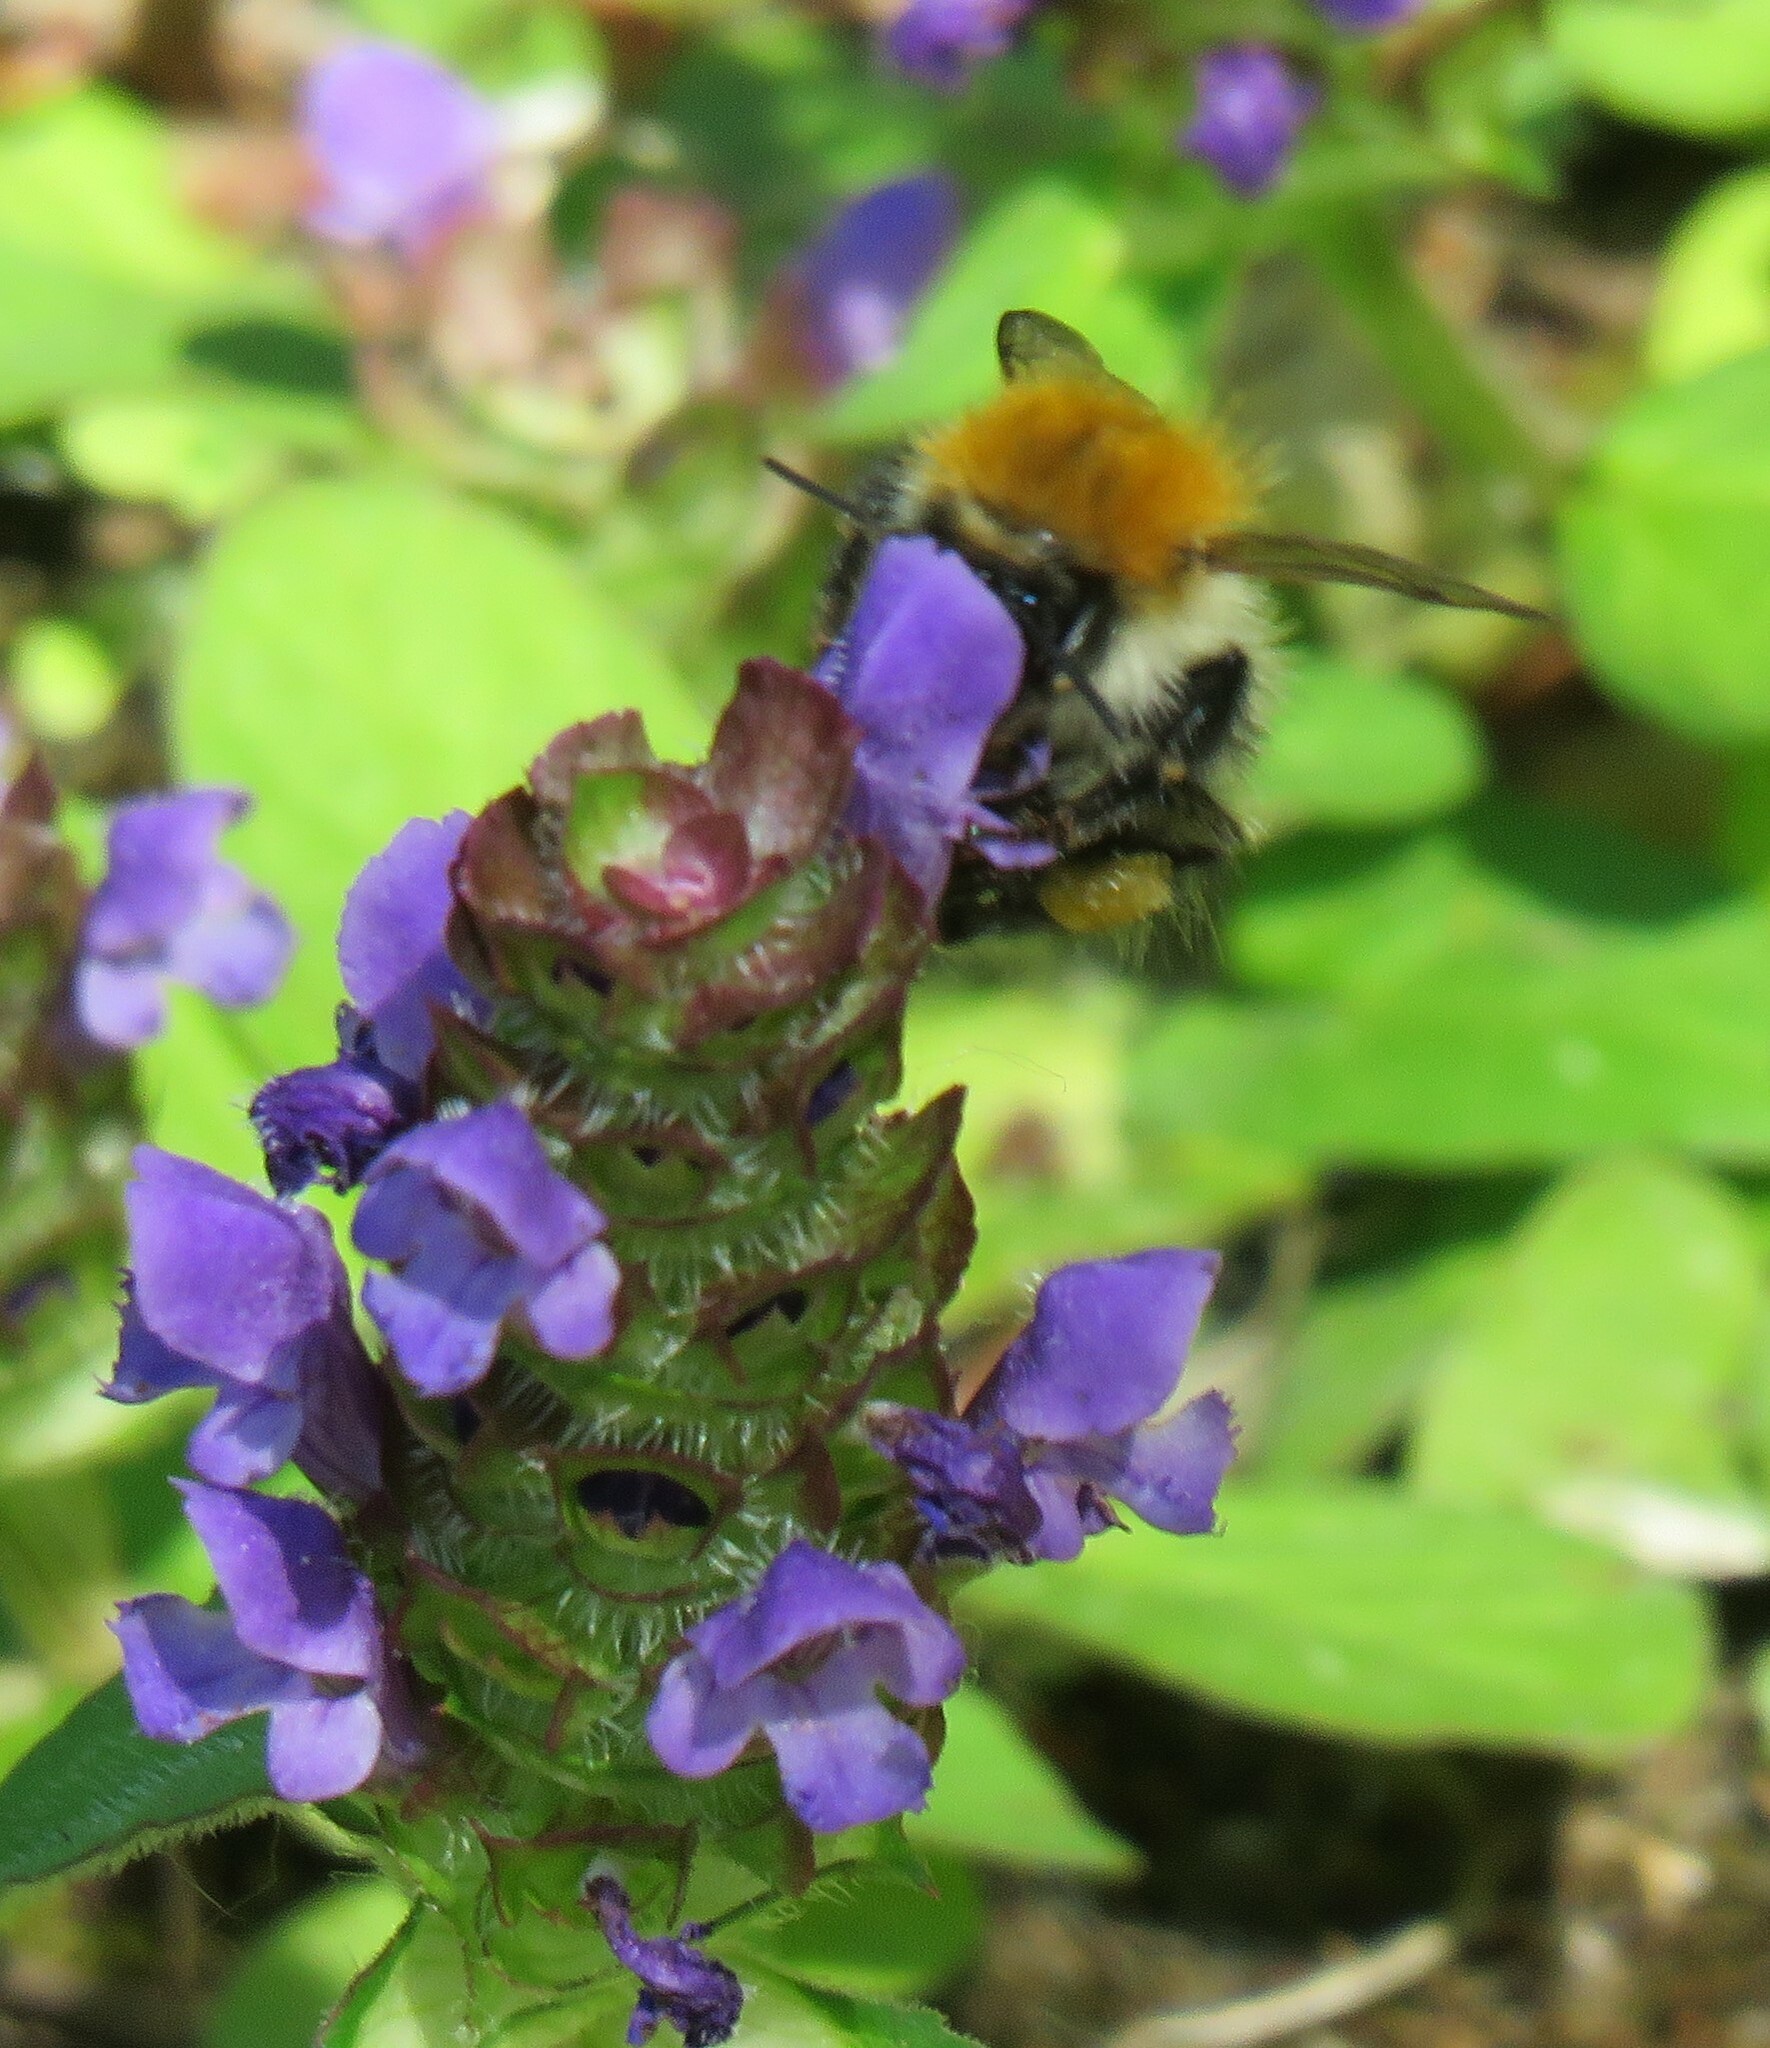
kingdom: Animalia
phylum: Arthropoda
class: Insecta
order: Hymenoptera
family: Apidae
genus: Bombus
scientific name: Bombus pascuorum
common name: Common carder bee
